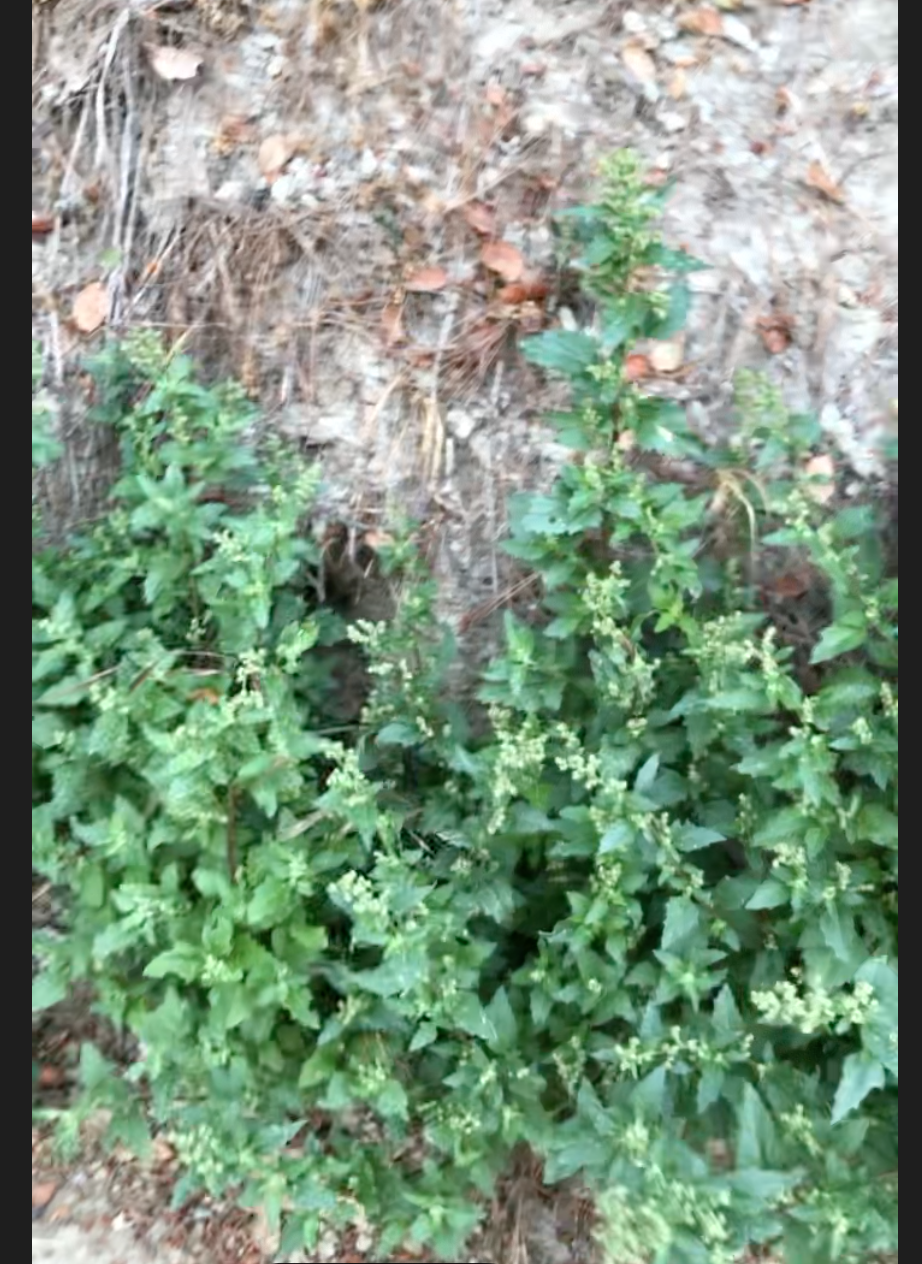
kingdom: Plantae
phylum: Tracheophyta
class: Magnoliopsida
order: Caryophyllales
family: Amaranthaceae
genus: Chenopodiastrum
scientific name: Chenopodiastrum murale
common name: Sowbane
